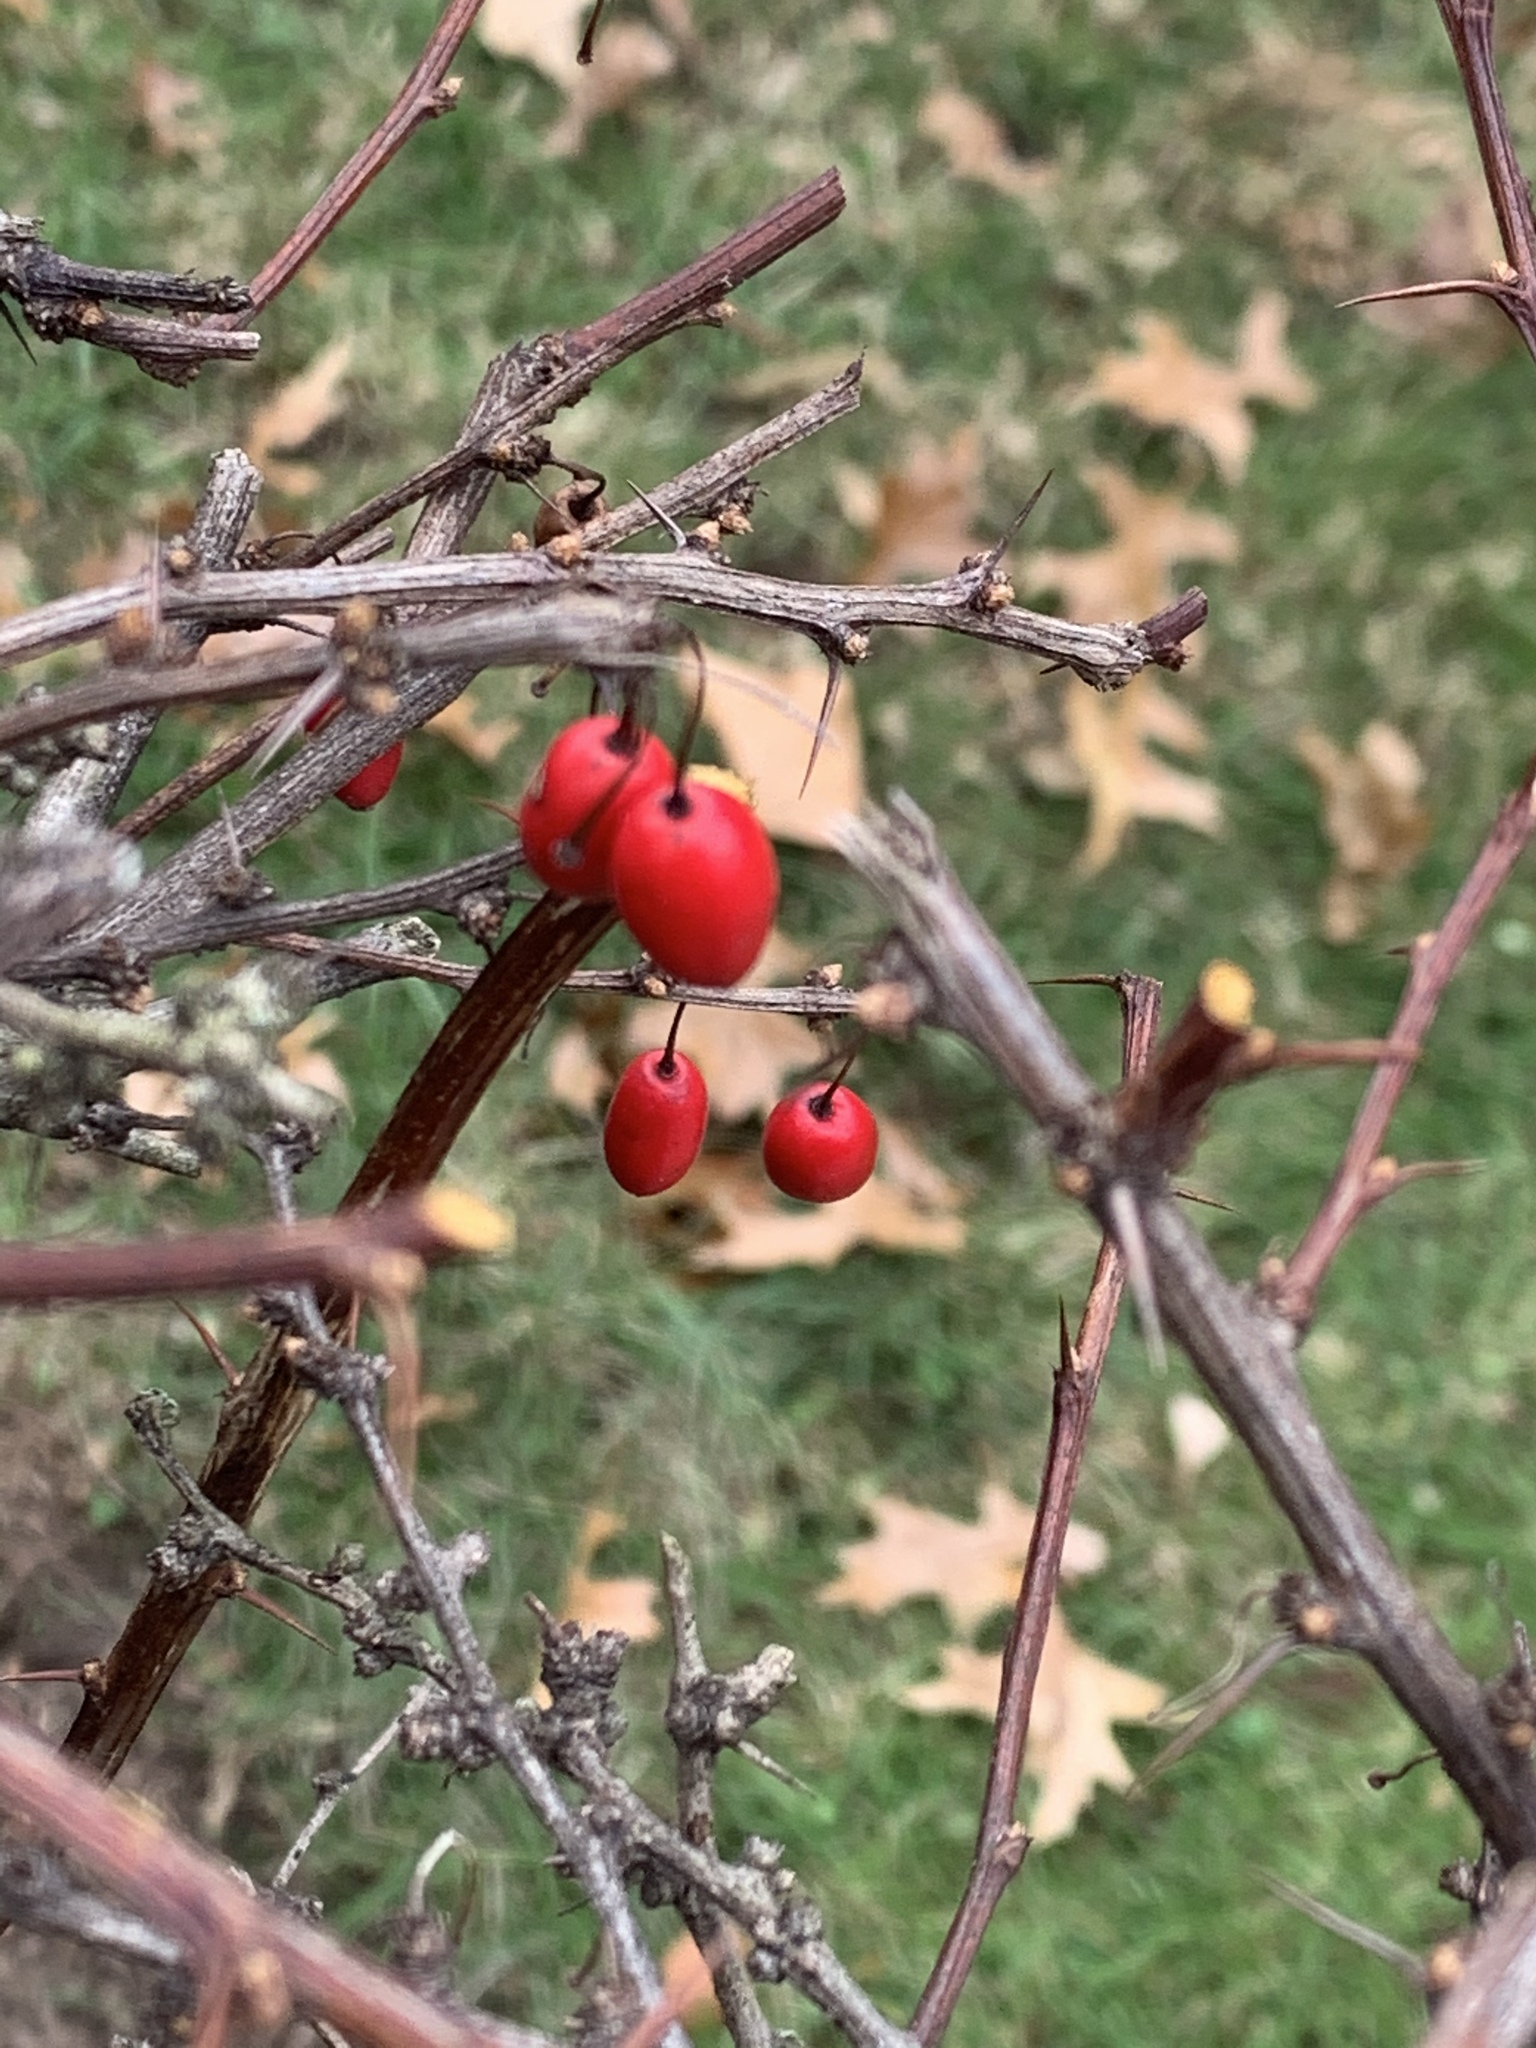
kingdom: Plantae
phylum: Tracheophyta
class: Magnoliopsida
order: Ranunculales
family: Berberidaceae
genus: Berberis
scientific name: Berberis thunbergii
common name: Japanese barberry
